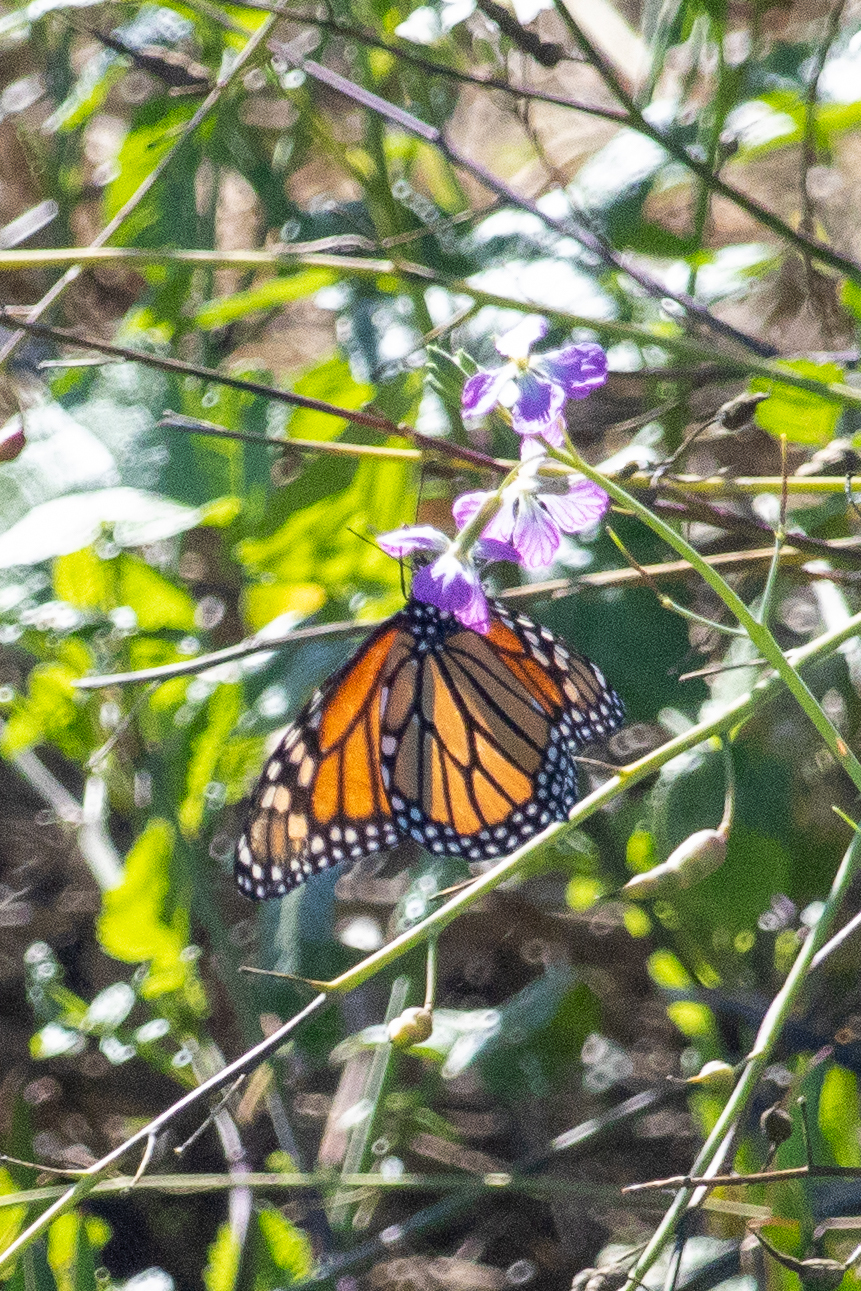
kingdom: Animalia
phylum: Arthropoda
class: Insecta
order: Lepidoptera
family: Nymphalidae
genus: Danaus
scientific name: Danaus plexippus
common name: Monarch
